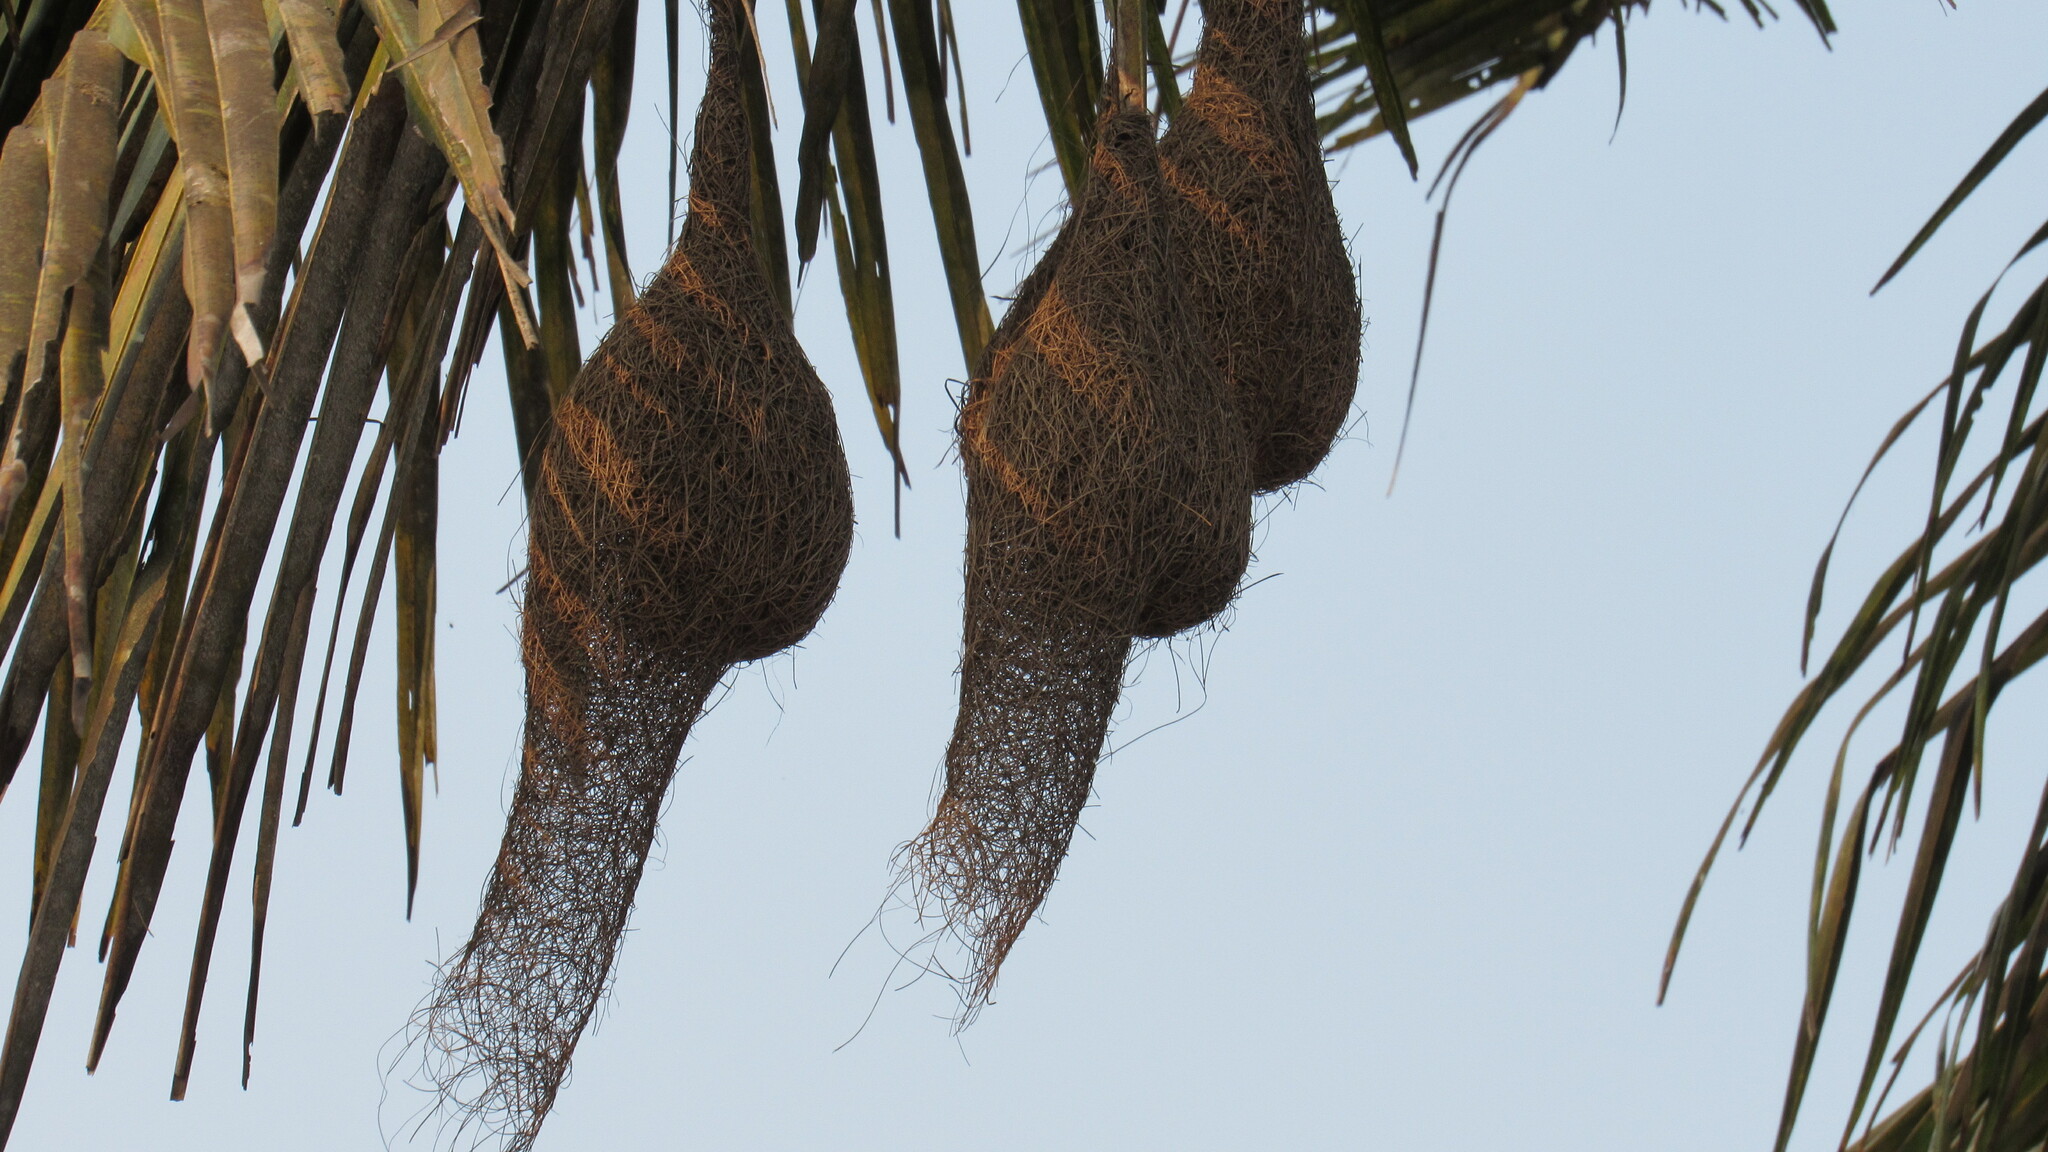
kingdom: Animalia
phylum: Chordata
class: Aves
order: Passeriformes
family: Ploceidae
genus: Ploceus
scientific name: Ploceus philippinus
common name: Baya weaver
